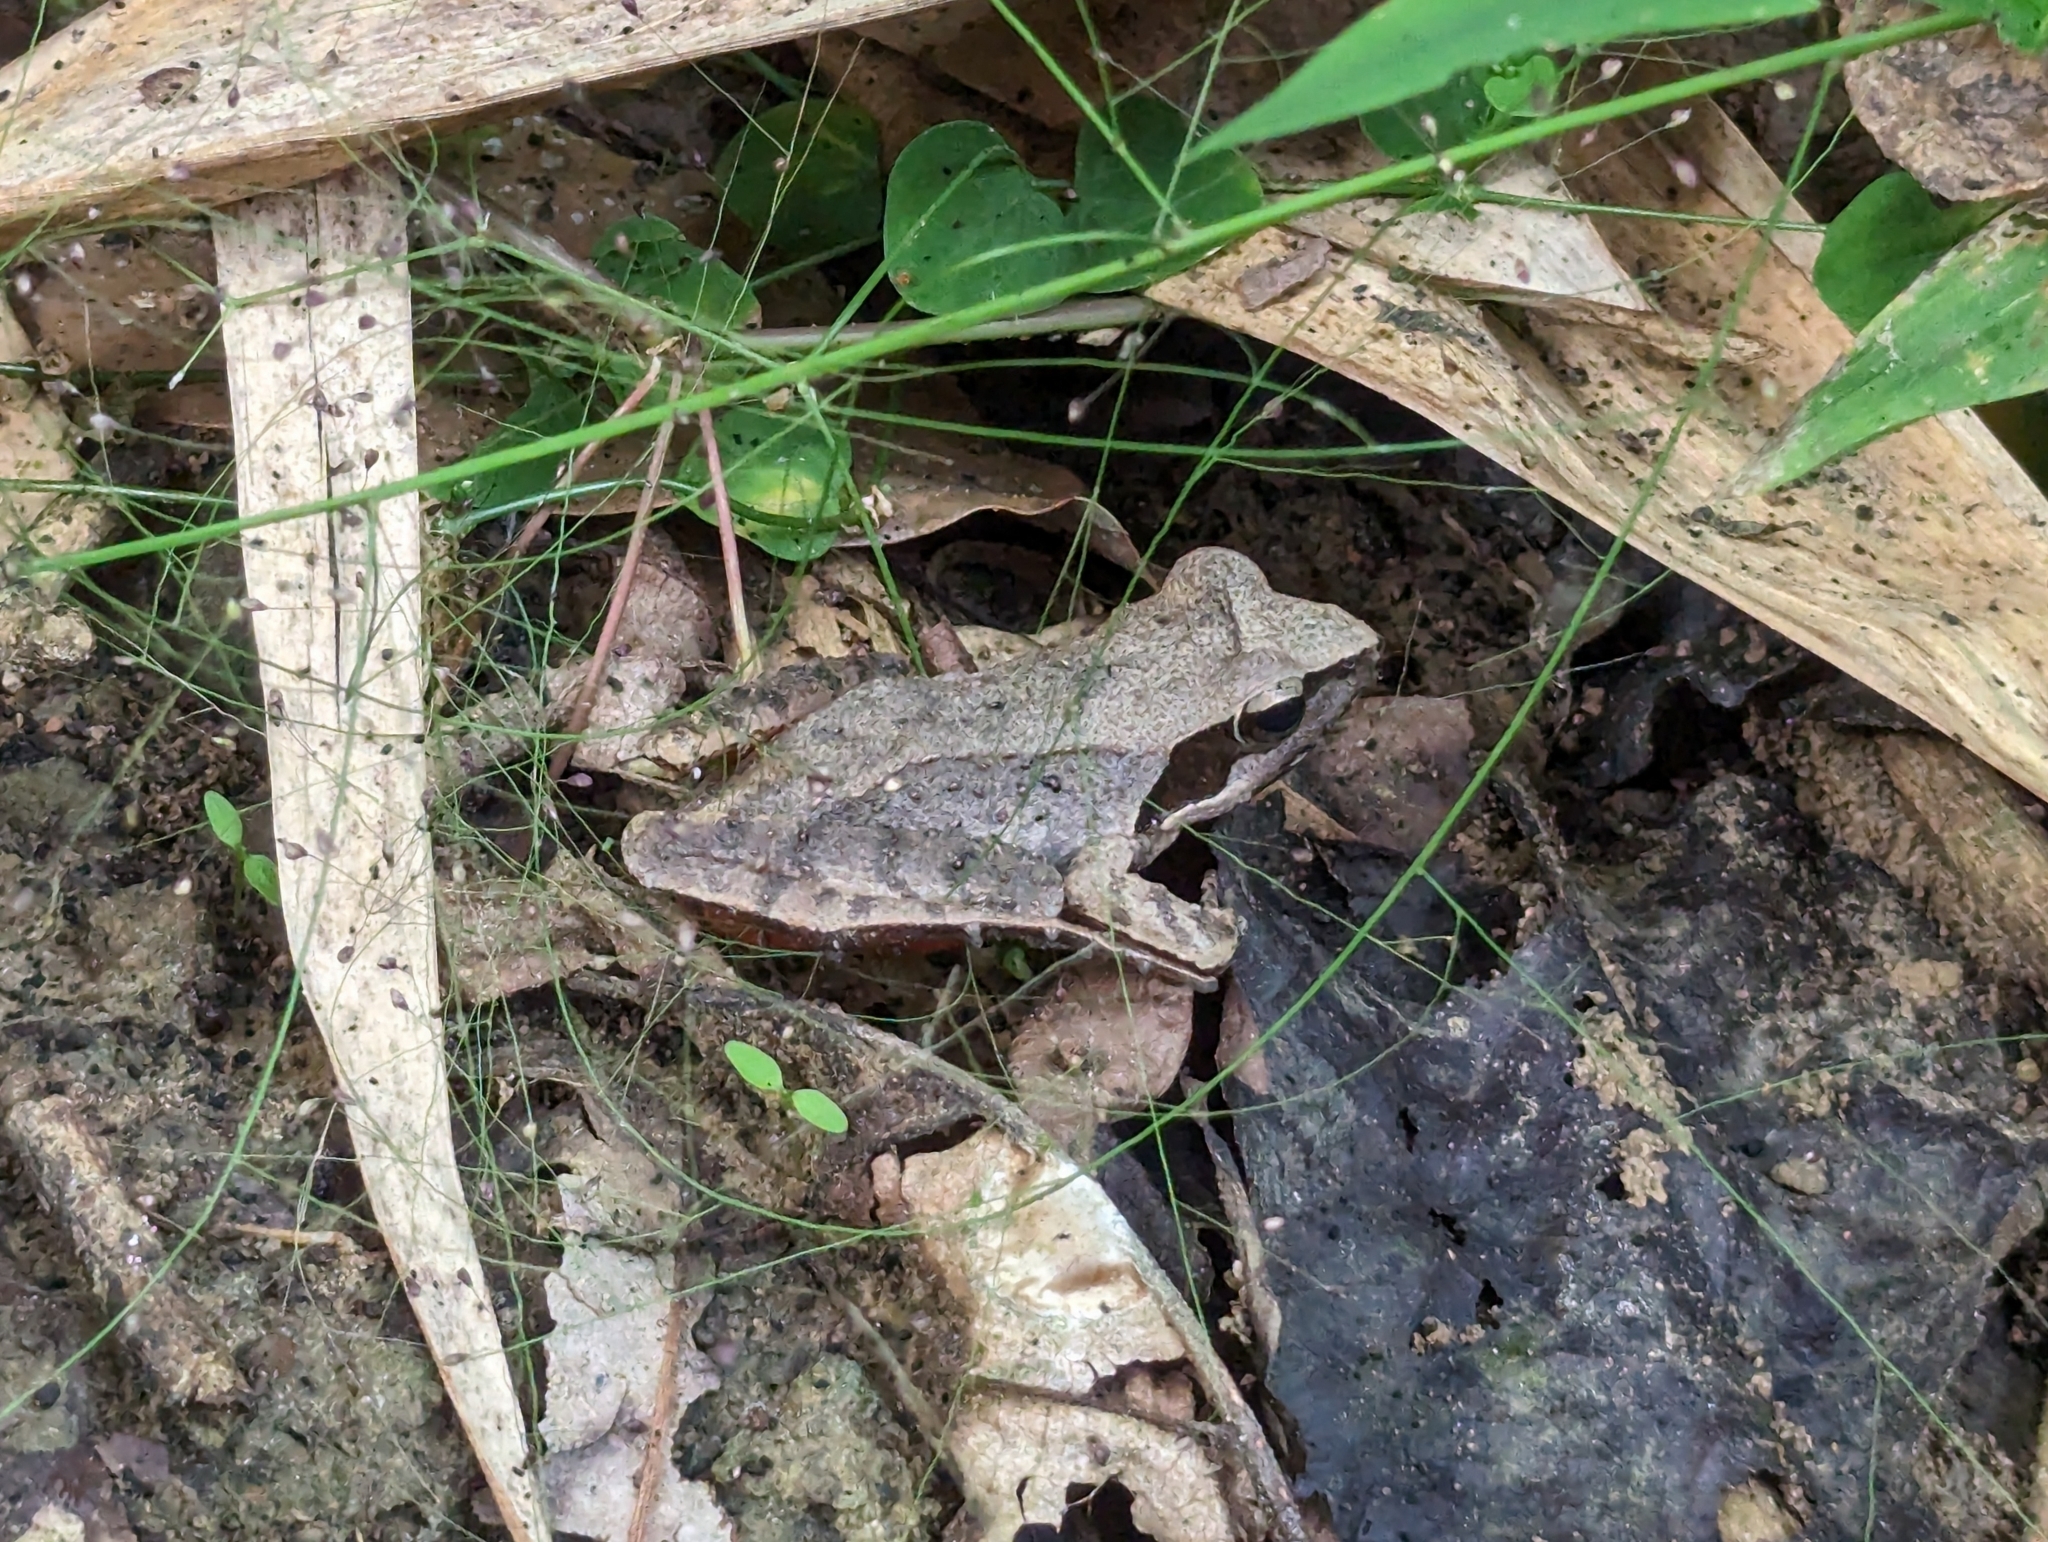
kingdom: Animalia
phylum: Chordata
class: Amphibia
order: Anura
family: Ranidae
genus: Rana
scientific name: Rana sauteri
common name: Kanshirei village frog
